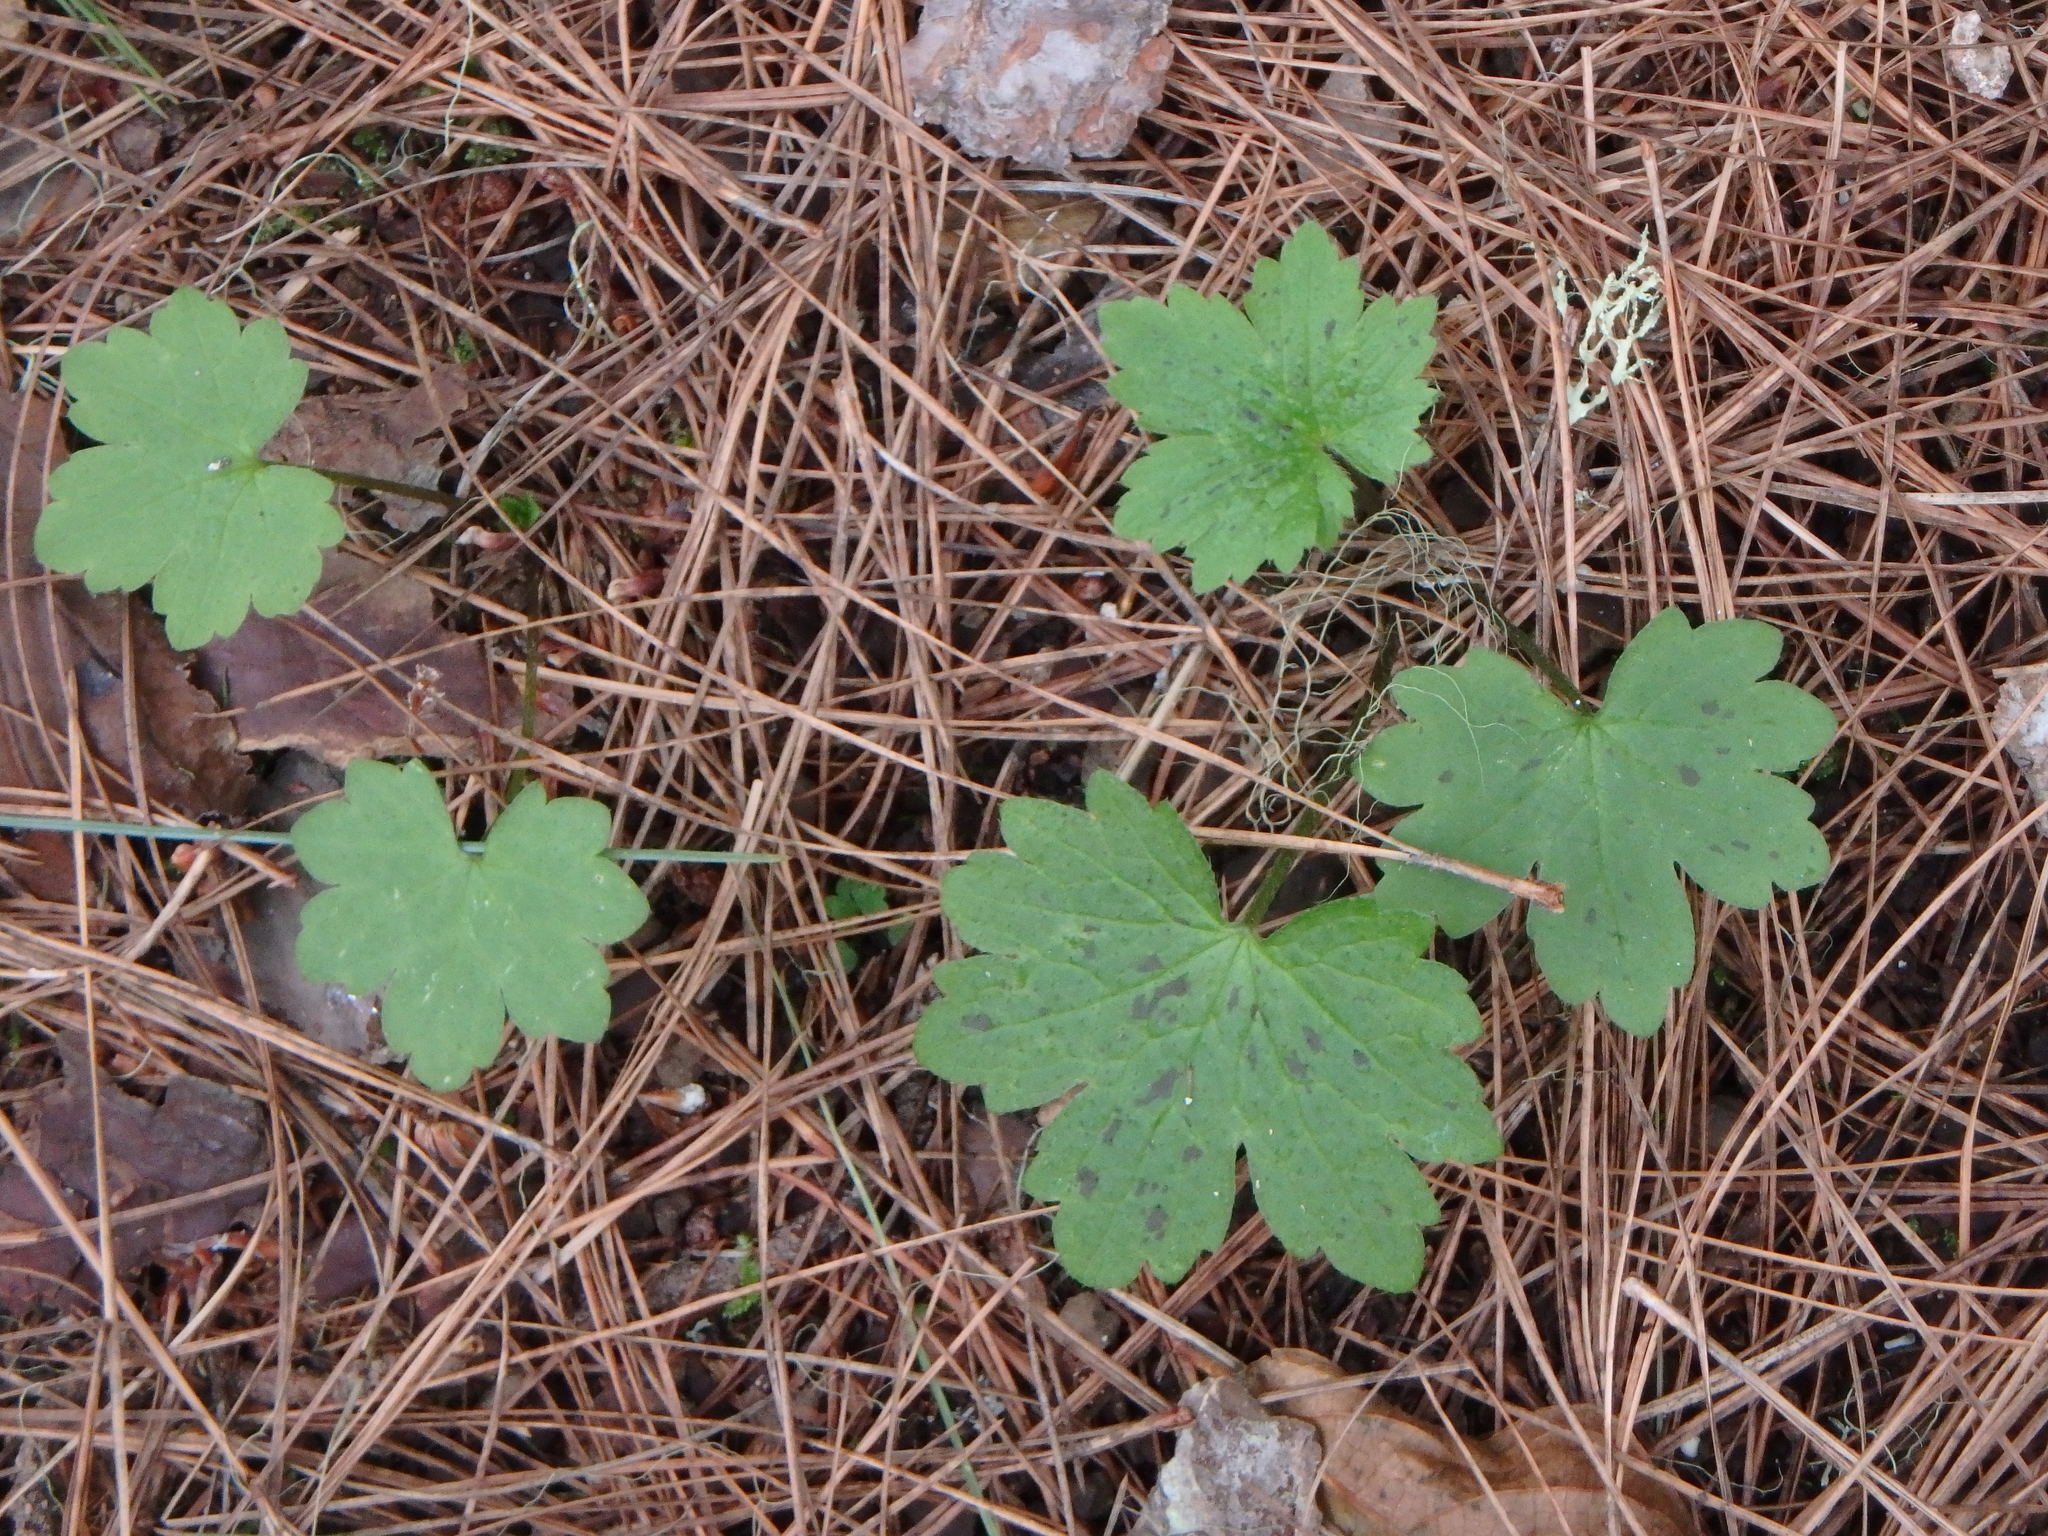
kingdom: Plantae
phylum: Tracheophyta
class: Magnoliopsida
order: Ranunculales
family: Ranunculaceae
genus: Ranunculus
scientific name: Ranunculus cortusifolius
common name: Azores buttercup
